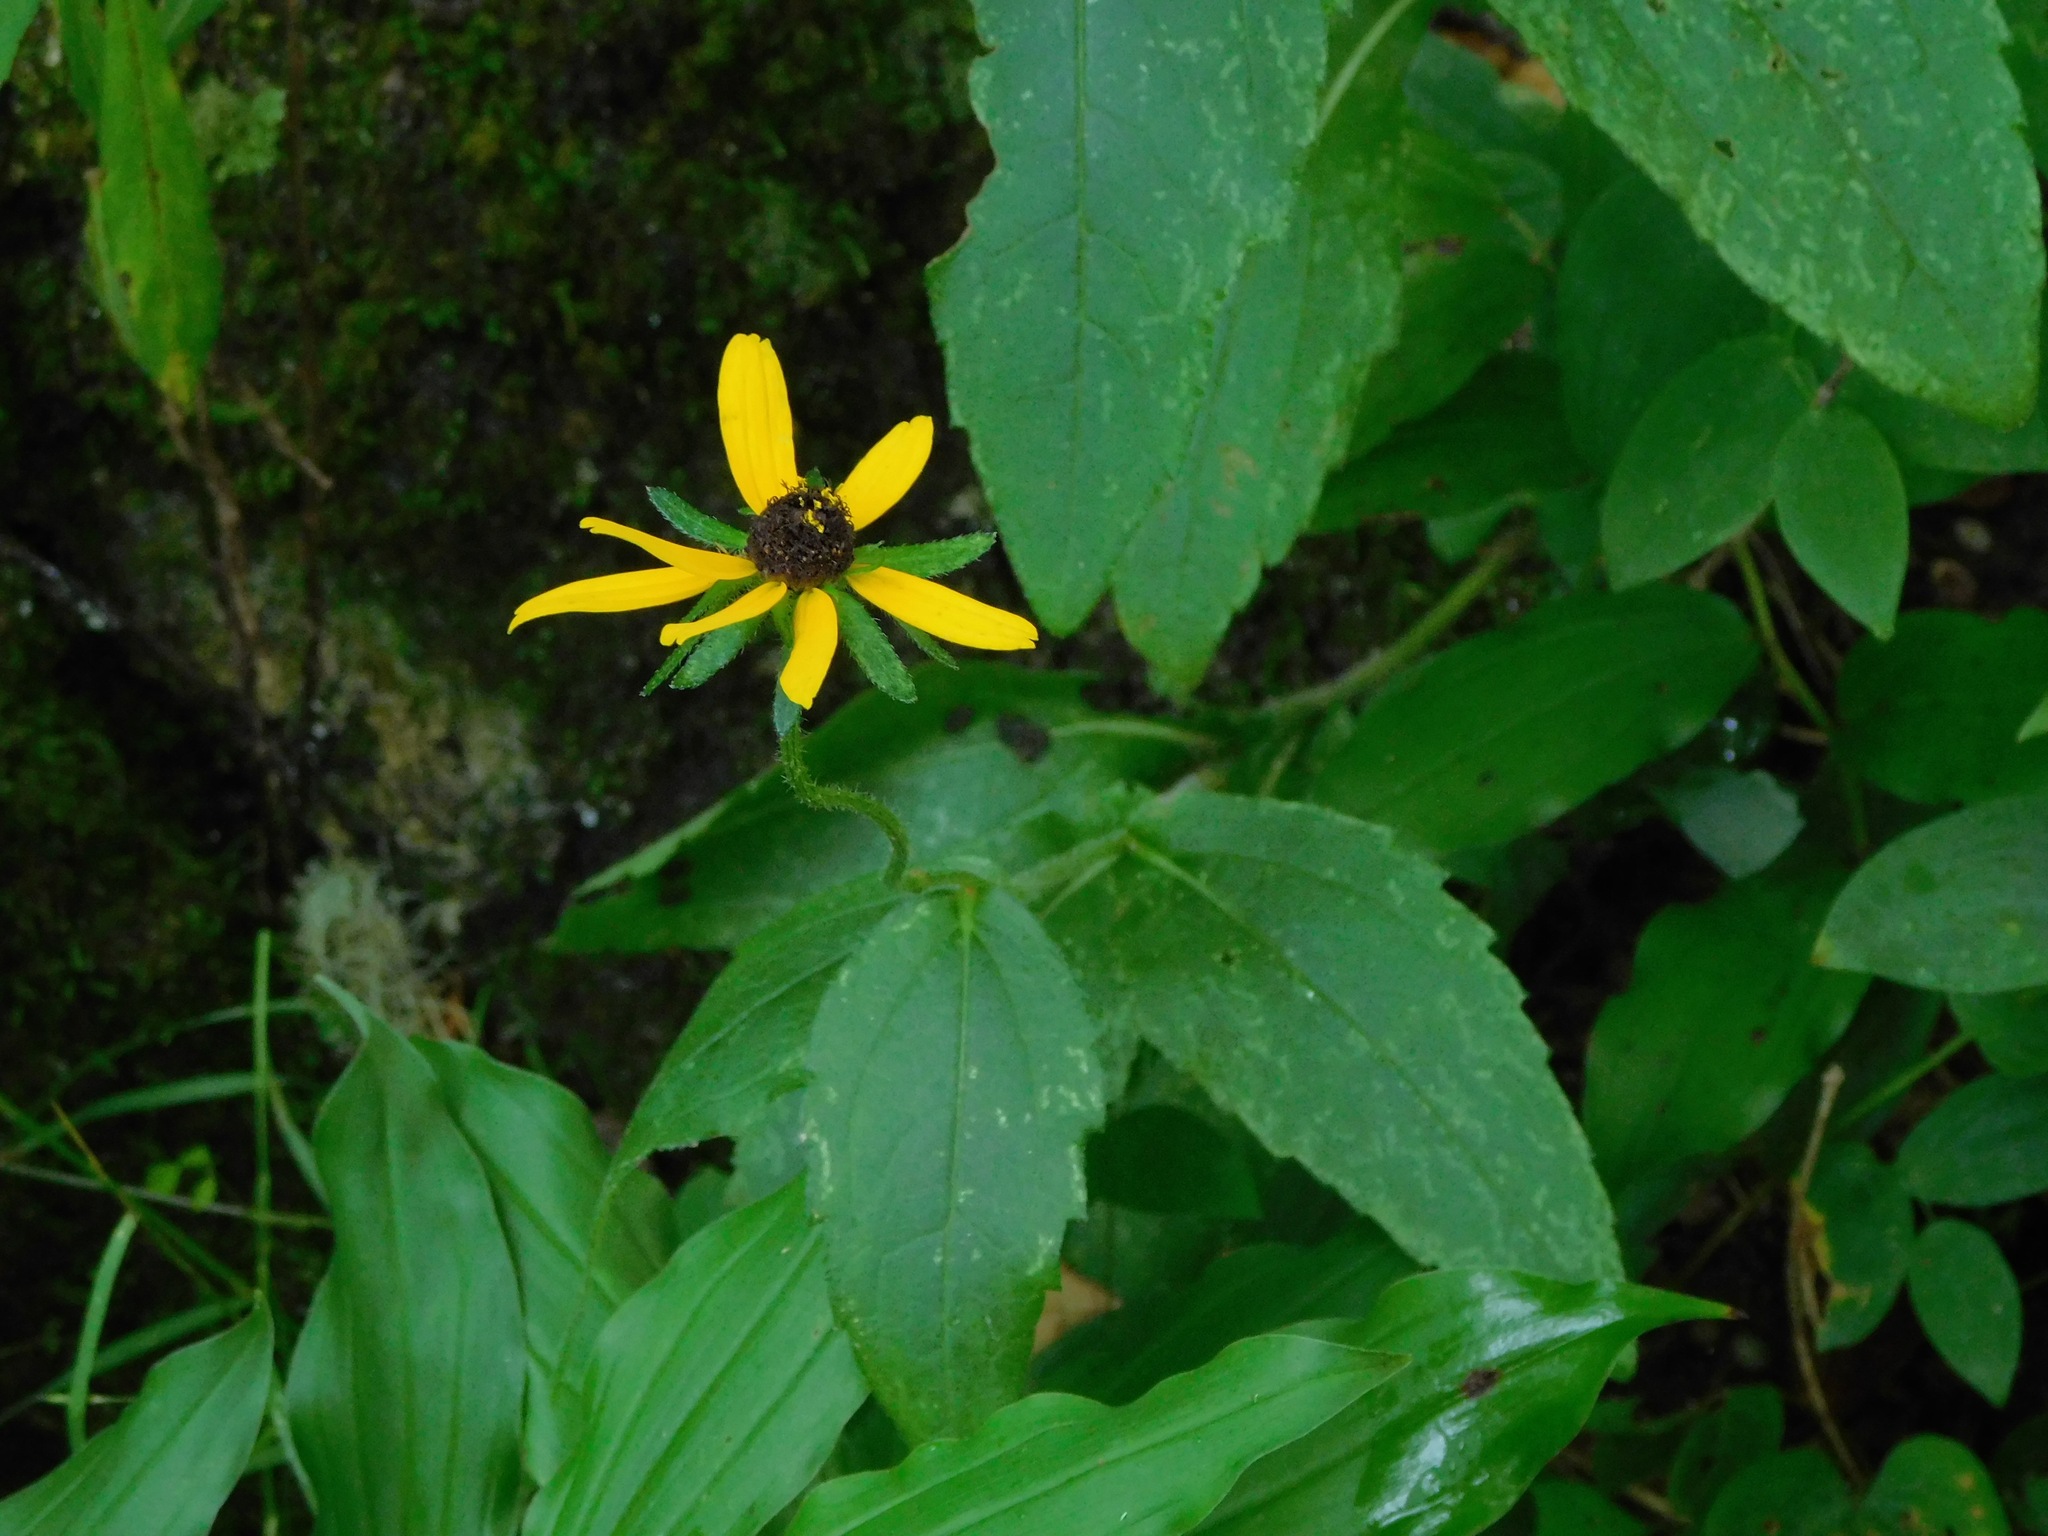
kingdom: Plantae
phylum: Tracheophyta
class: Magnoliopsida
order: Asterales
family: Asteraceae
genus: Rudbeckia
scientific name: Rudbeckia hirta
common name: Black-eyed-susan
